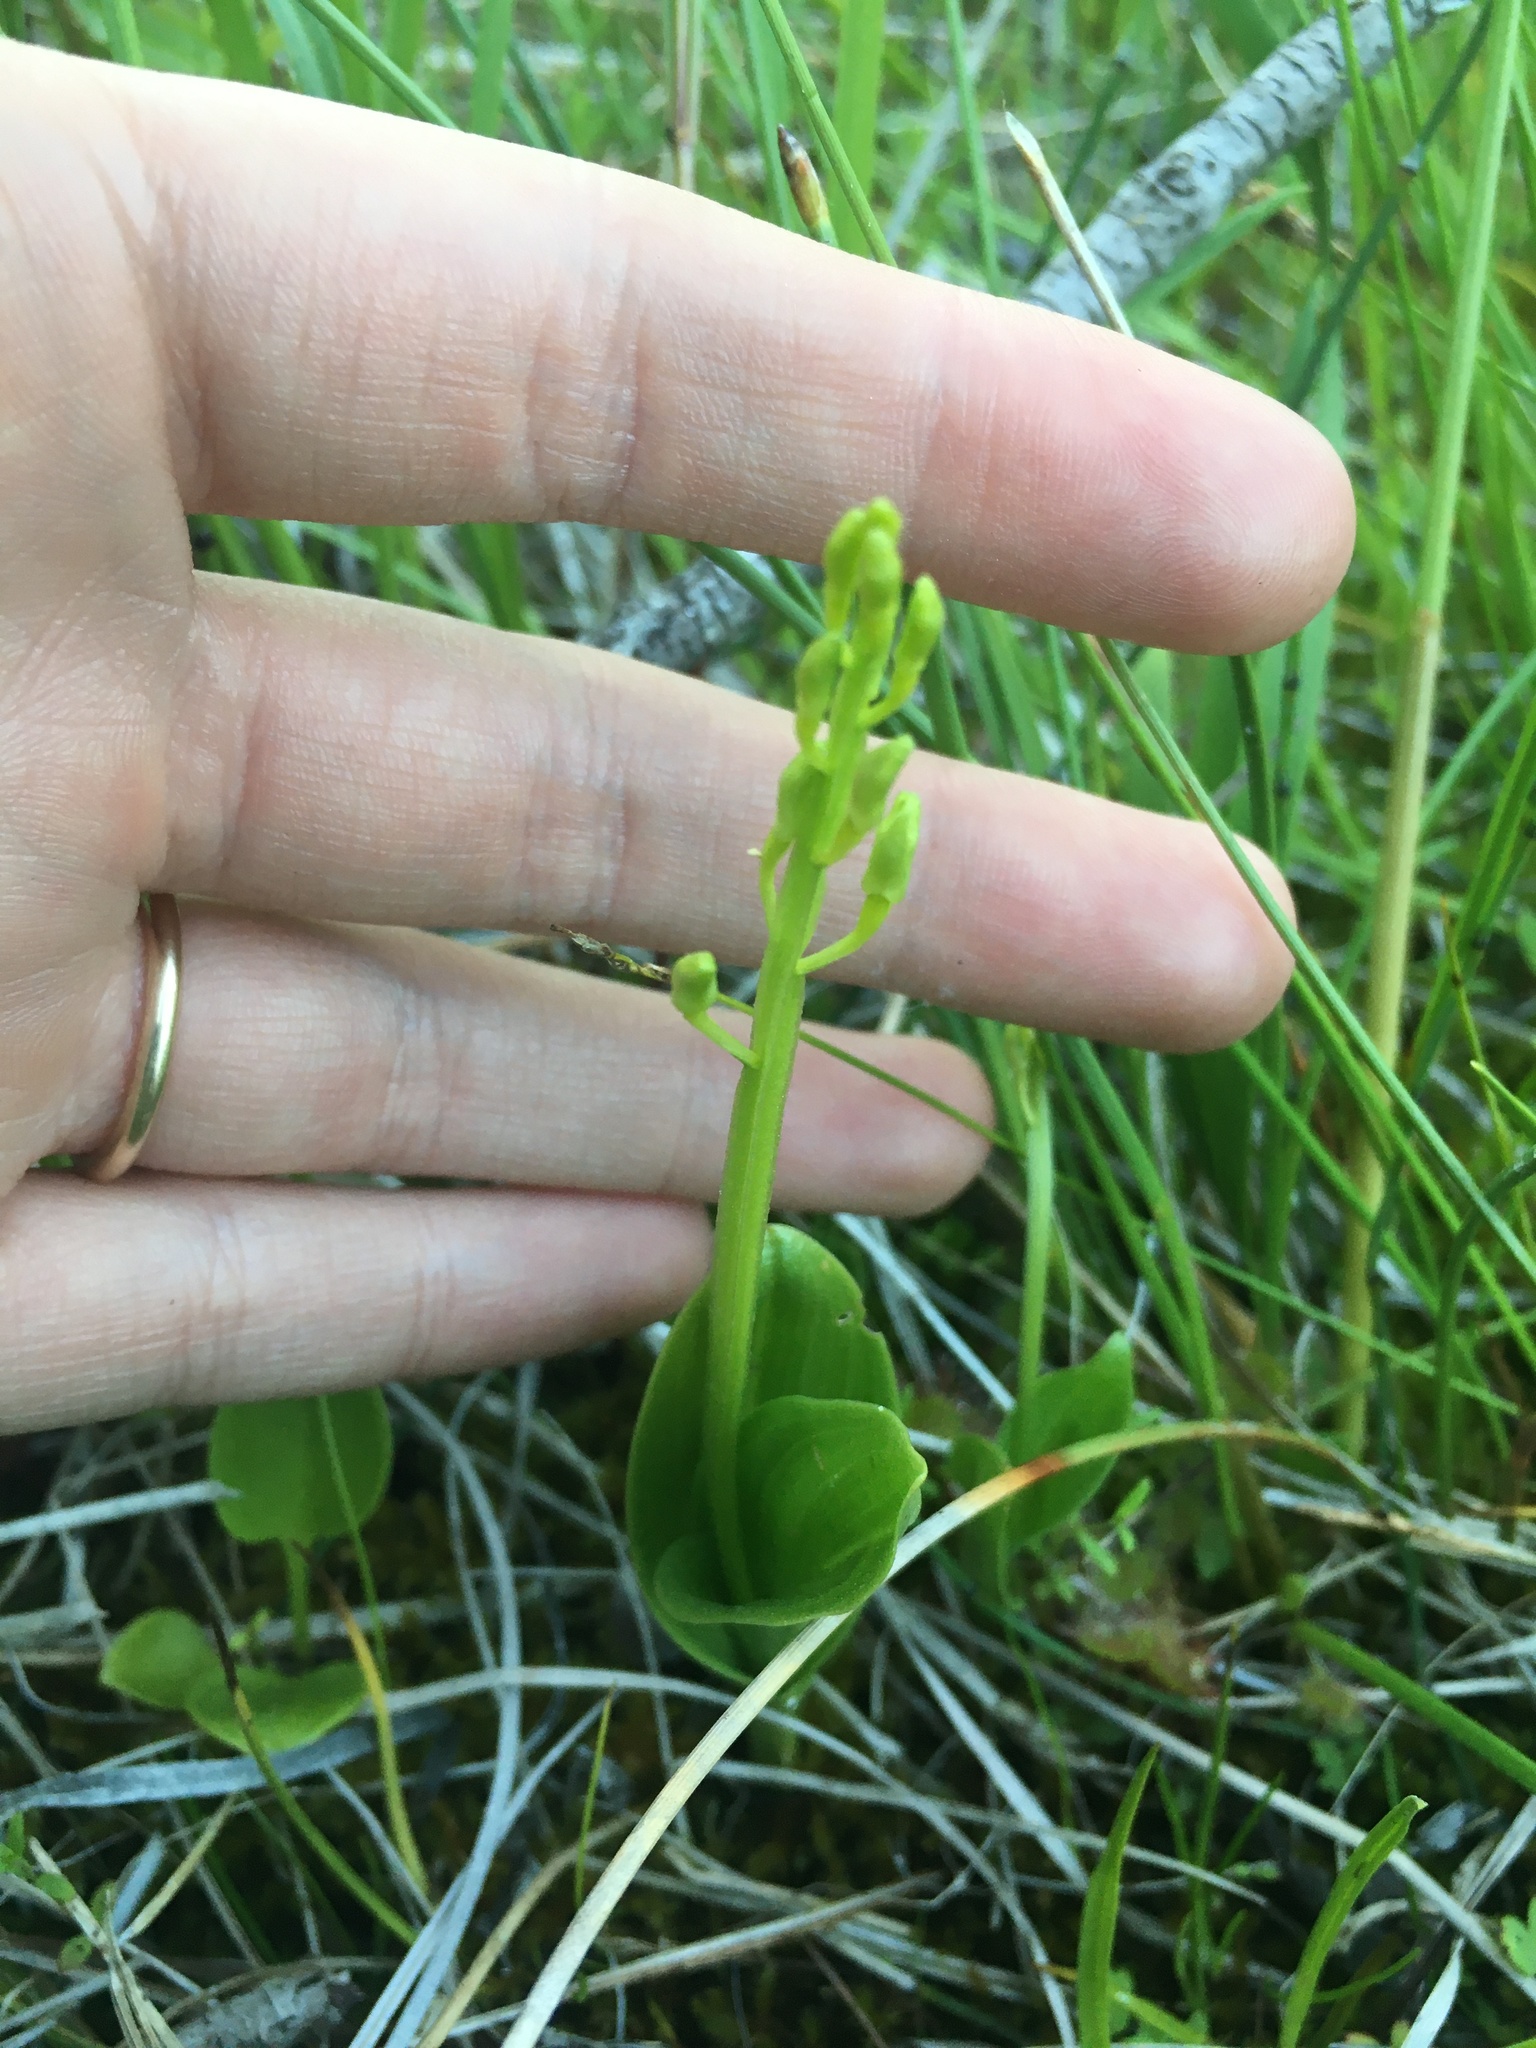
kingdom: Animalia
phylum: Arthropoda
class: Insecta
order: Coleoptera
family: Curculionidae
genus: Liparis
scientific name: Liparis loeselii
